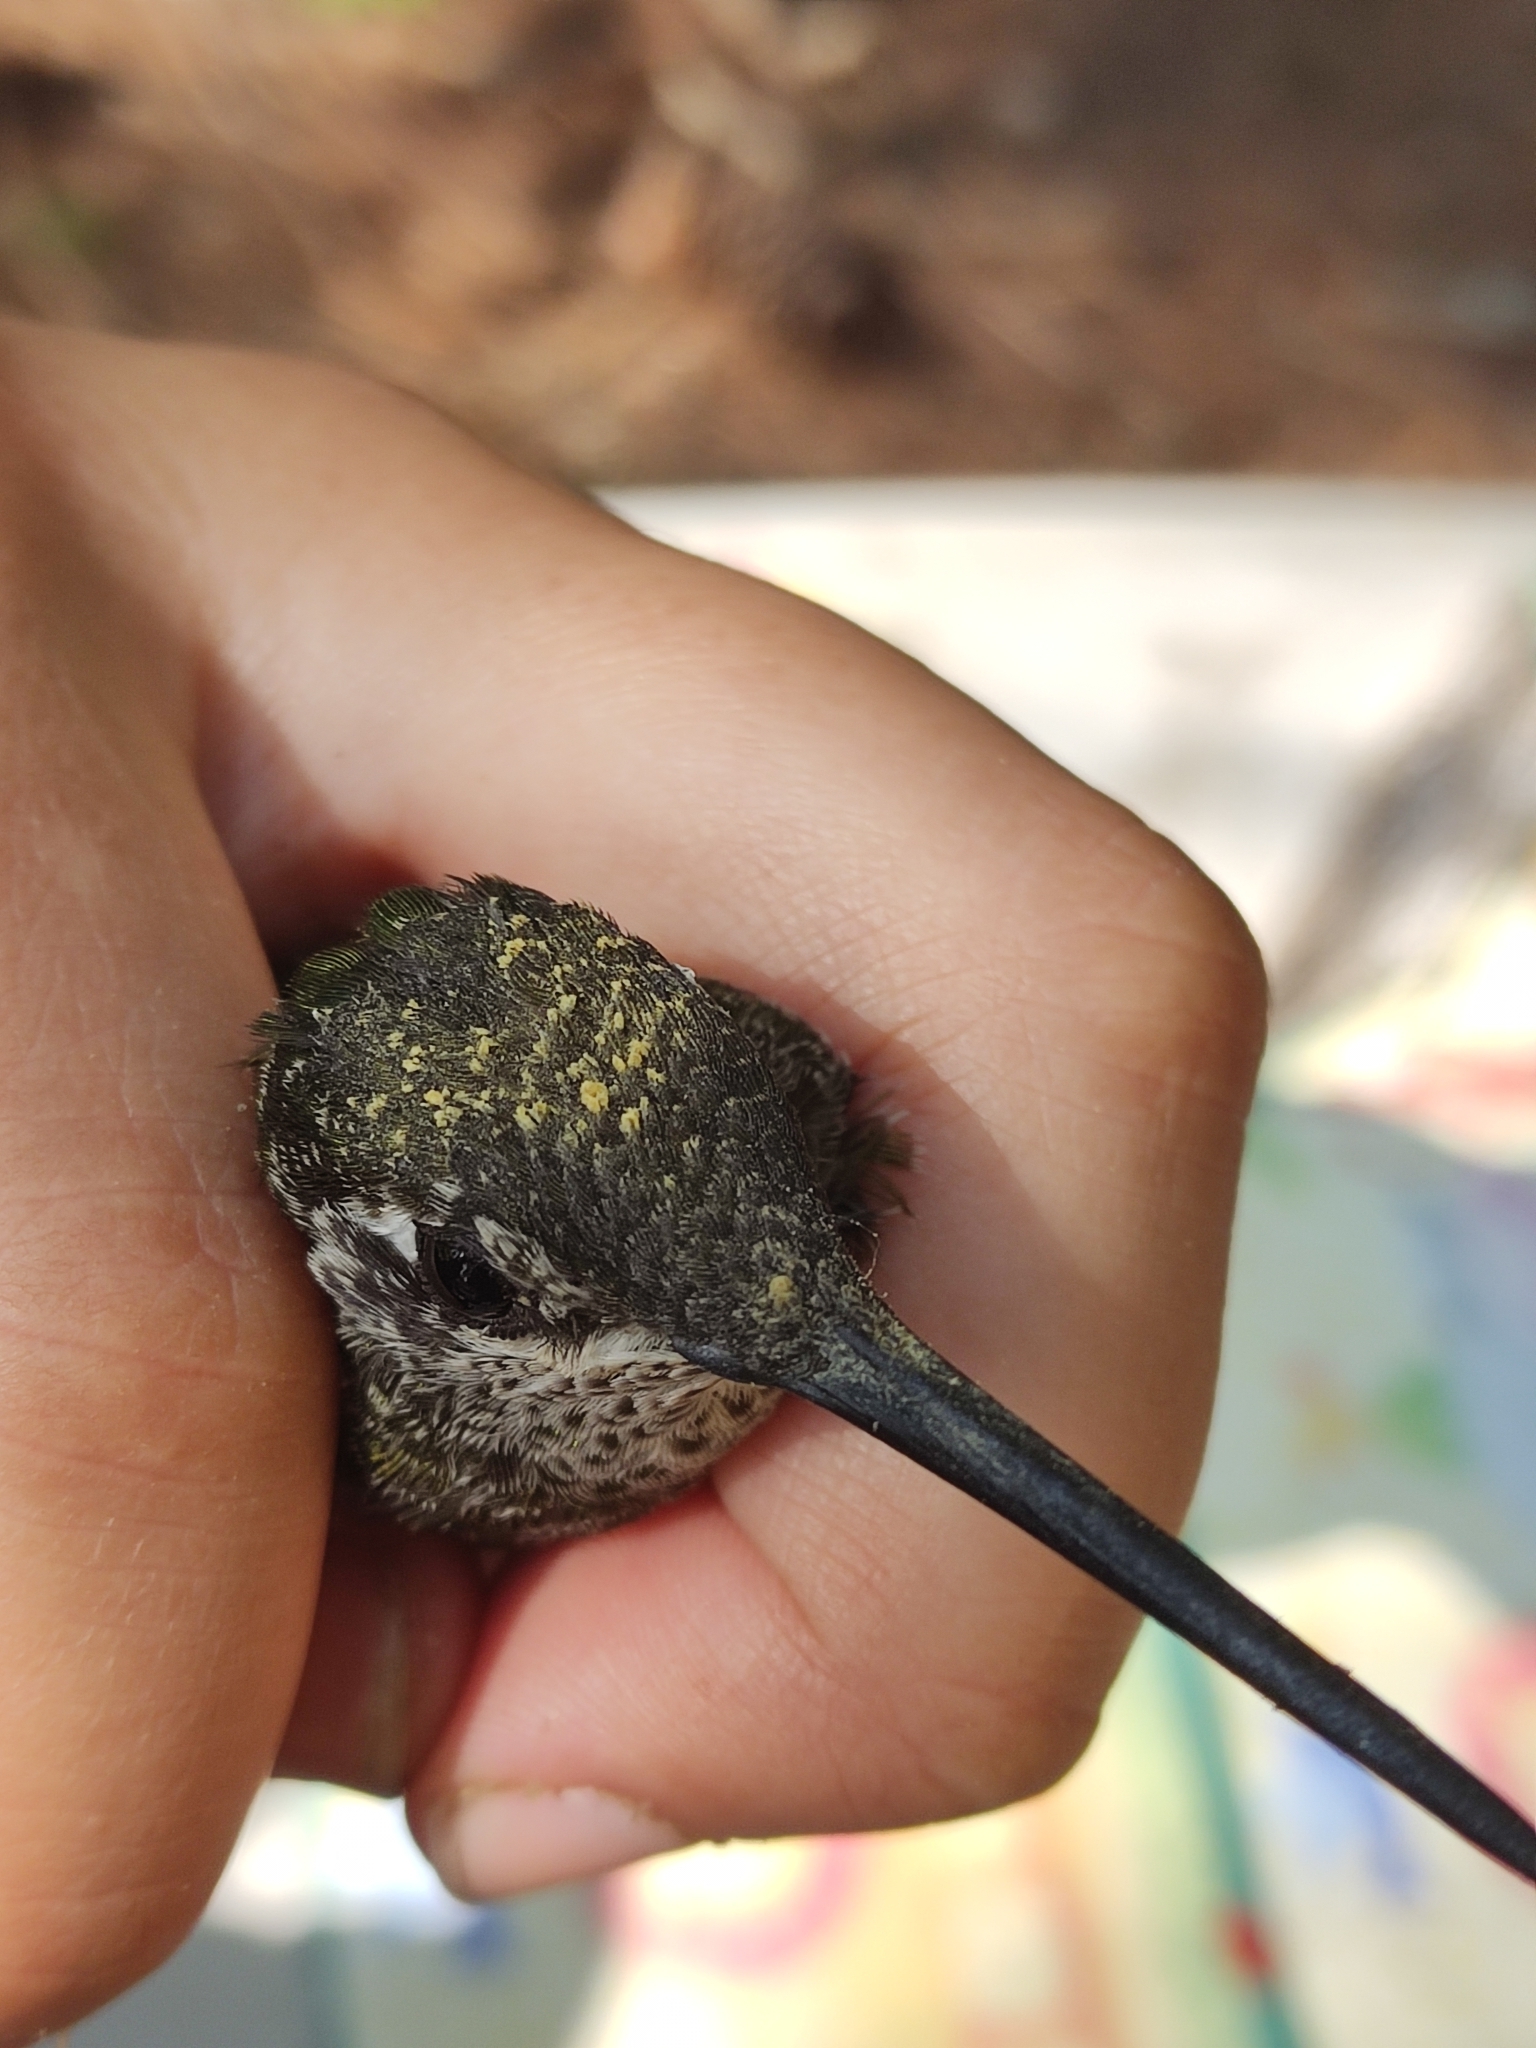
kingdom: Animalia
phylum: Chordata
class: Aves
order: Apodiformes
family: Trochilidae
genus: Eugenes
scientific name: Eugenes fulgens
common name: Magnificent hummingbird
